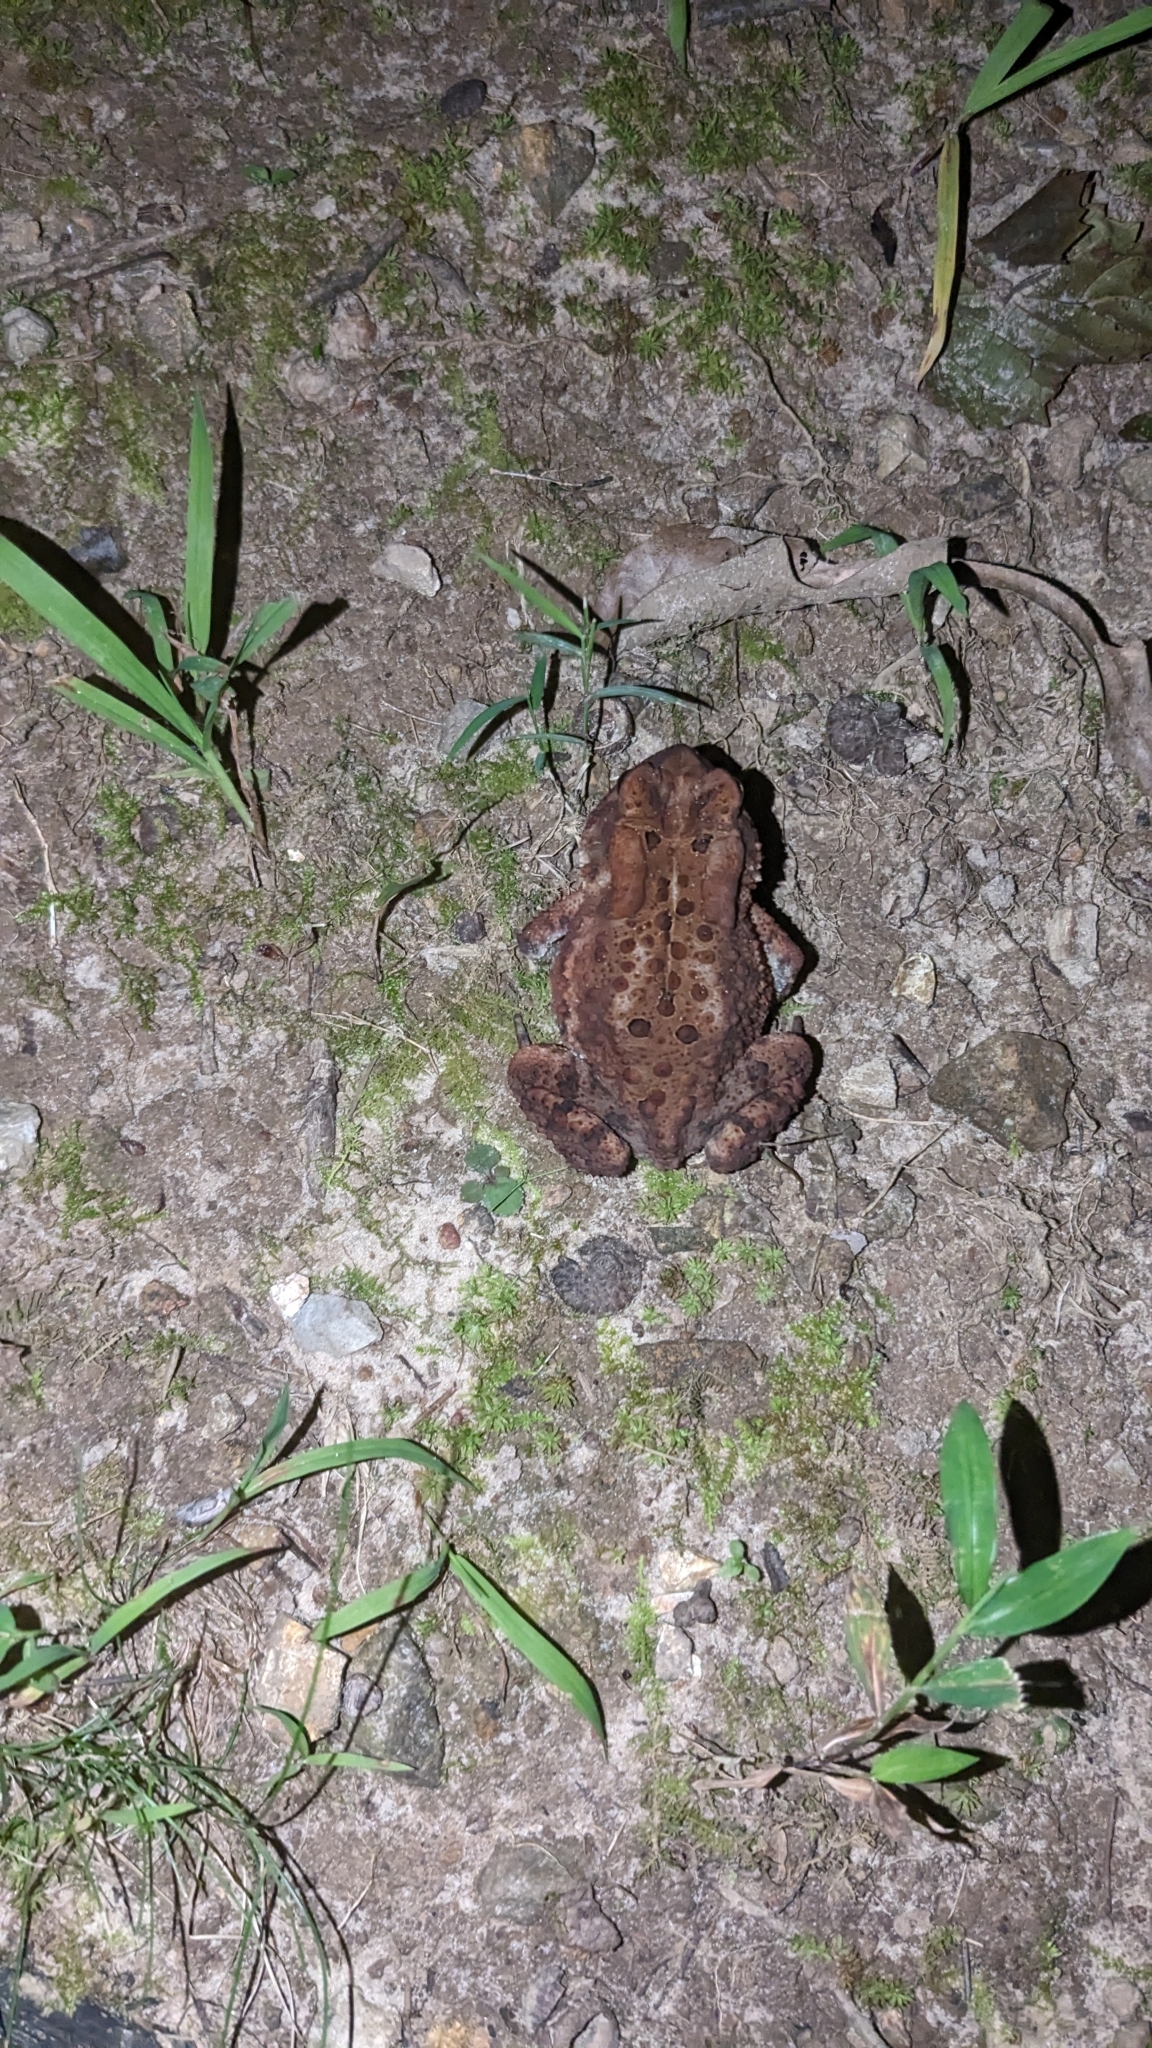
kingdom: Animalia
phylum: Chordata
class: Amphibia
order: Anura
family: Bufonidae
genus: Anaxyrus
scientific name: Anaxyrus americanus
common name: American toad
